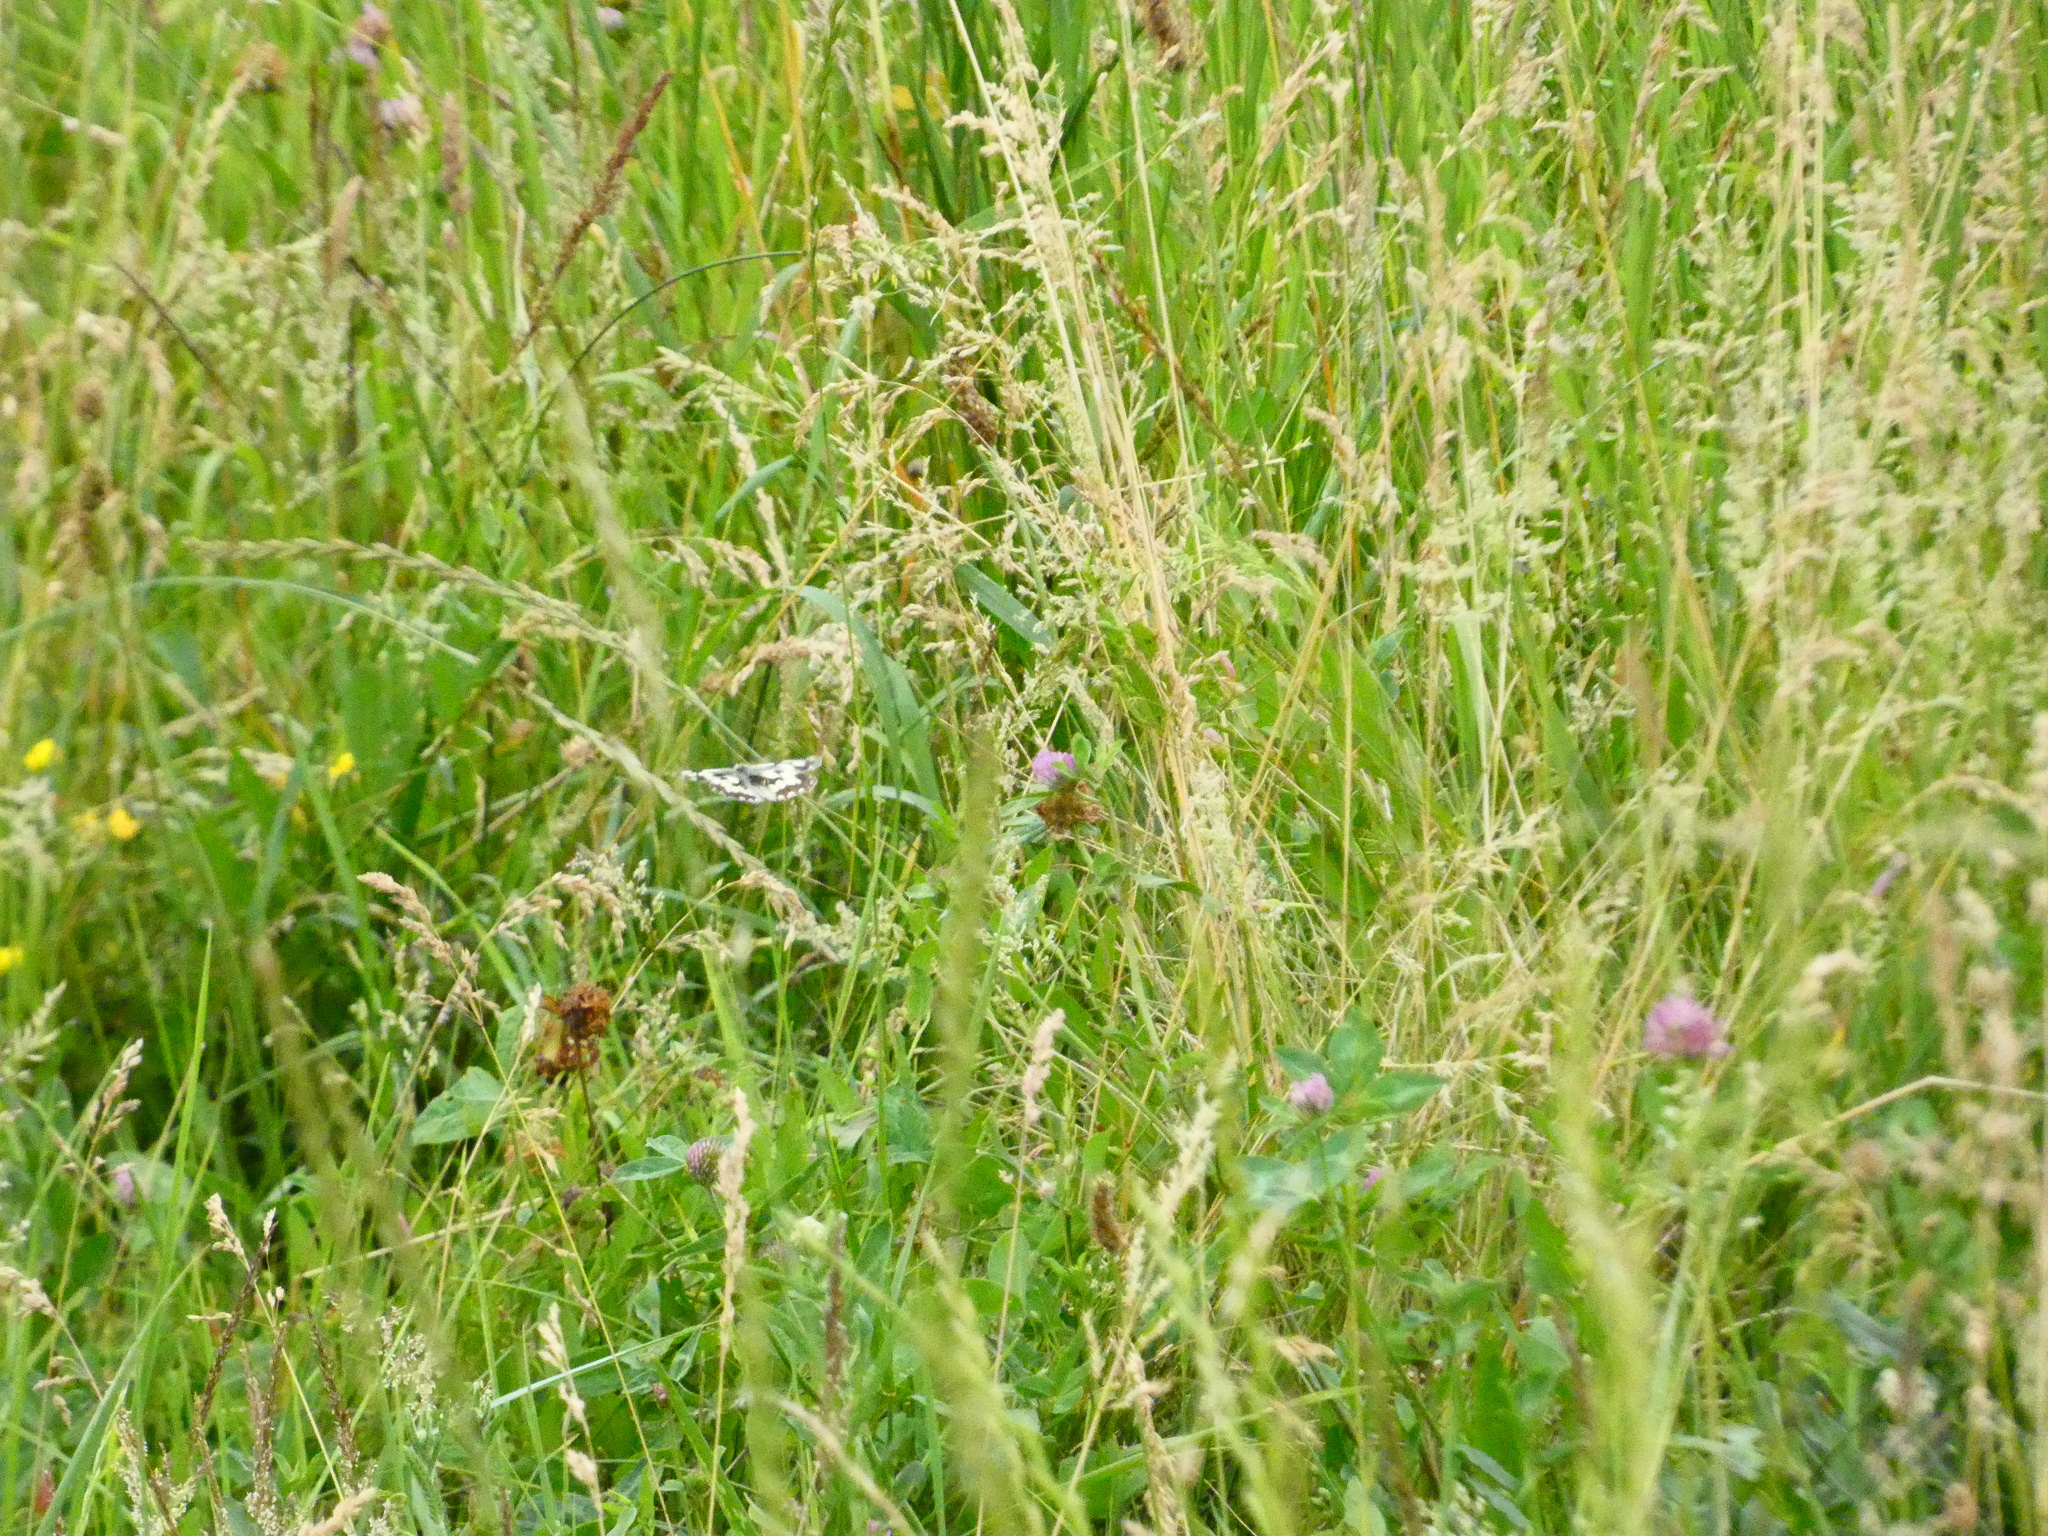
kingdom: Animalia
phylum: Arthropoda
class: Insecta
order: Lepidoptera
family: Nymphalidae
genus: Melanargia
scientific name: Melanargia galathea
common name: Marbled white
